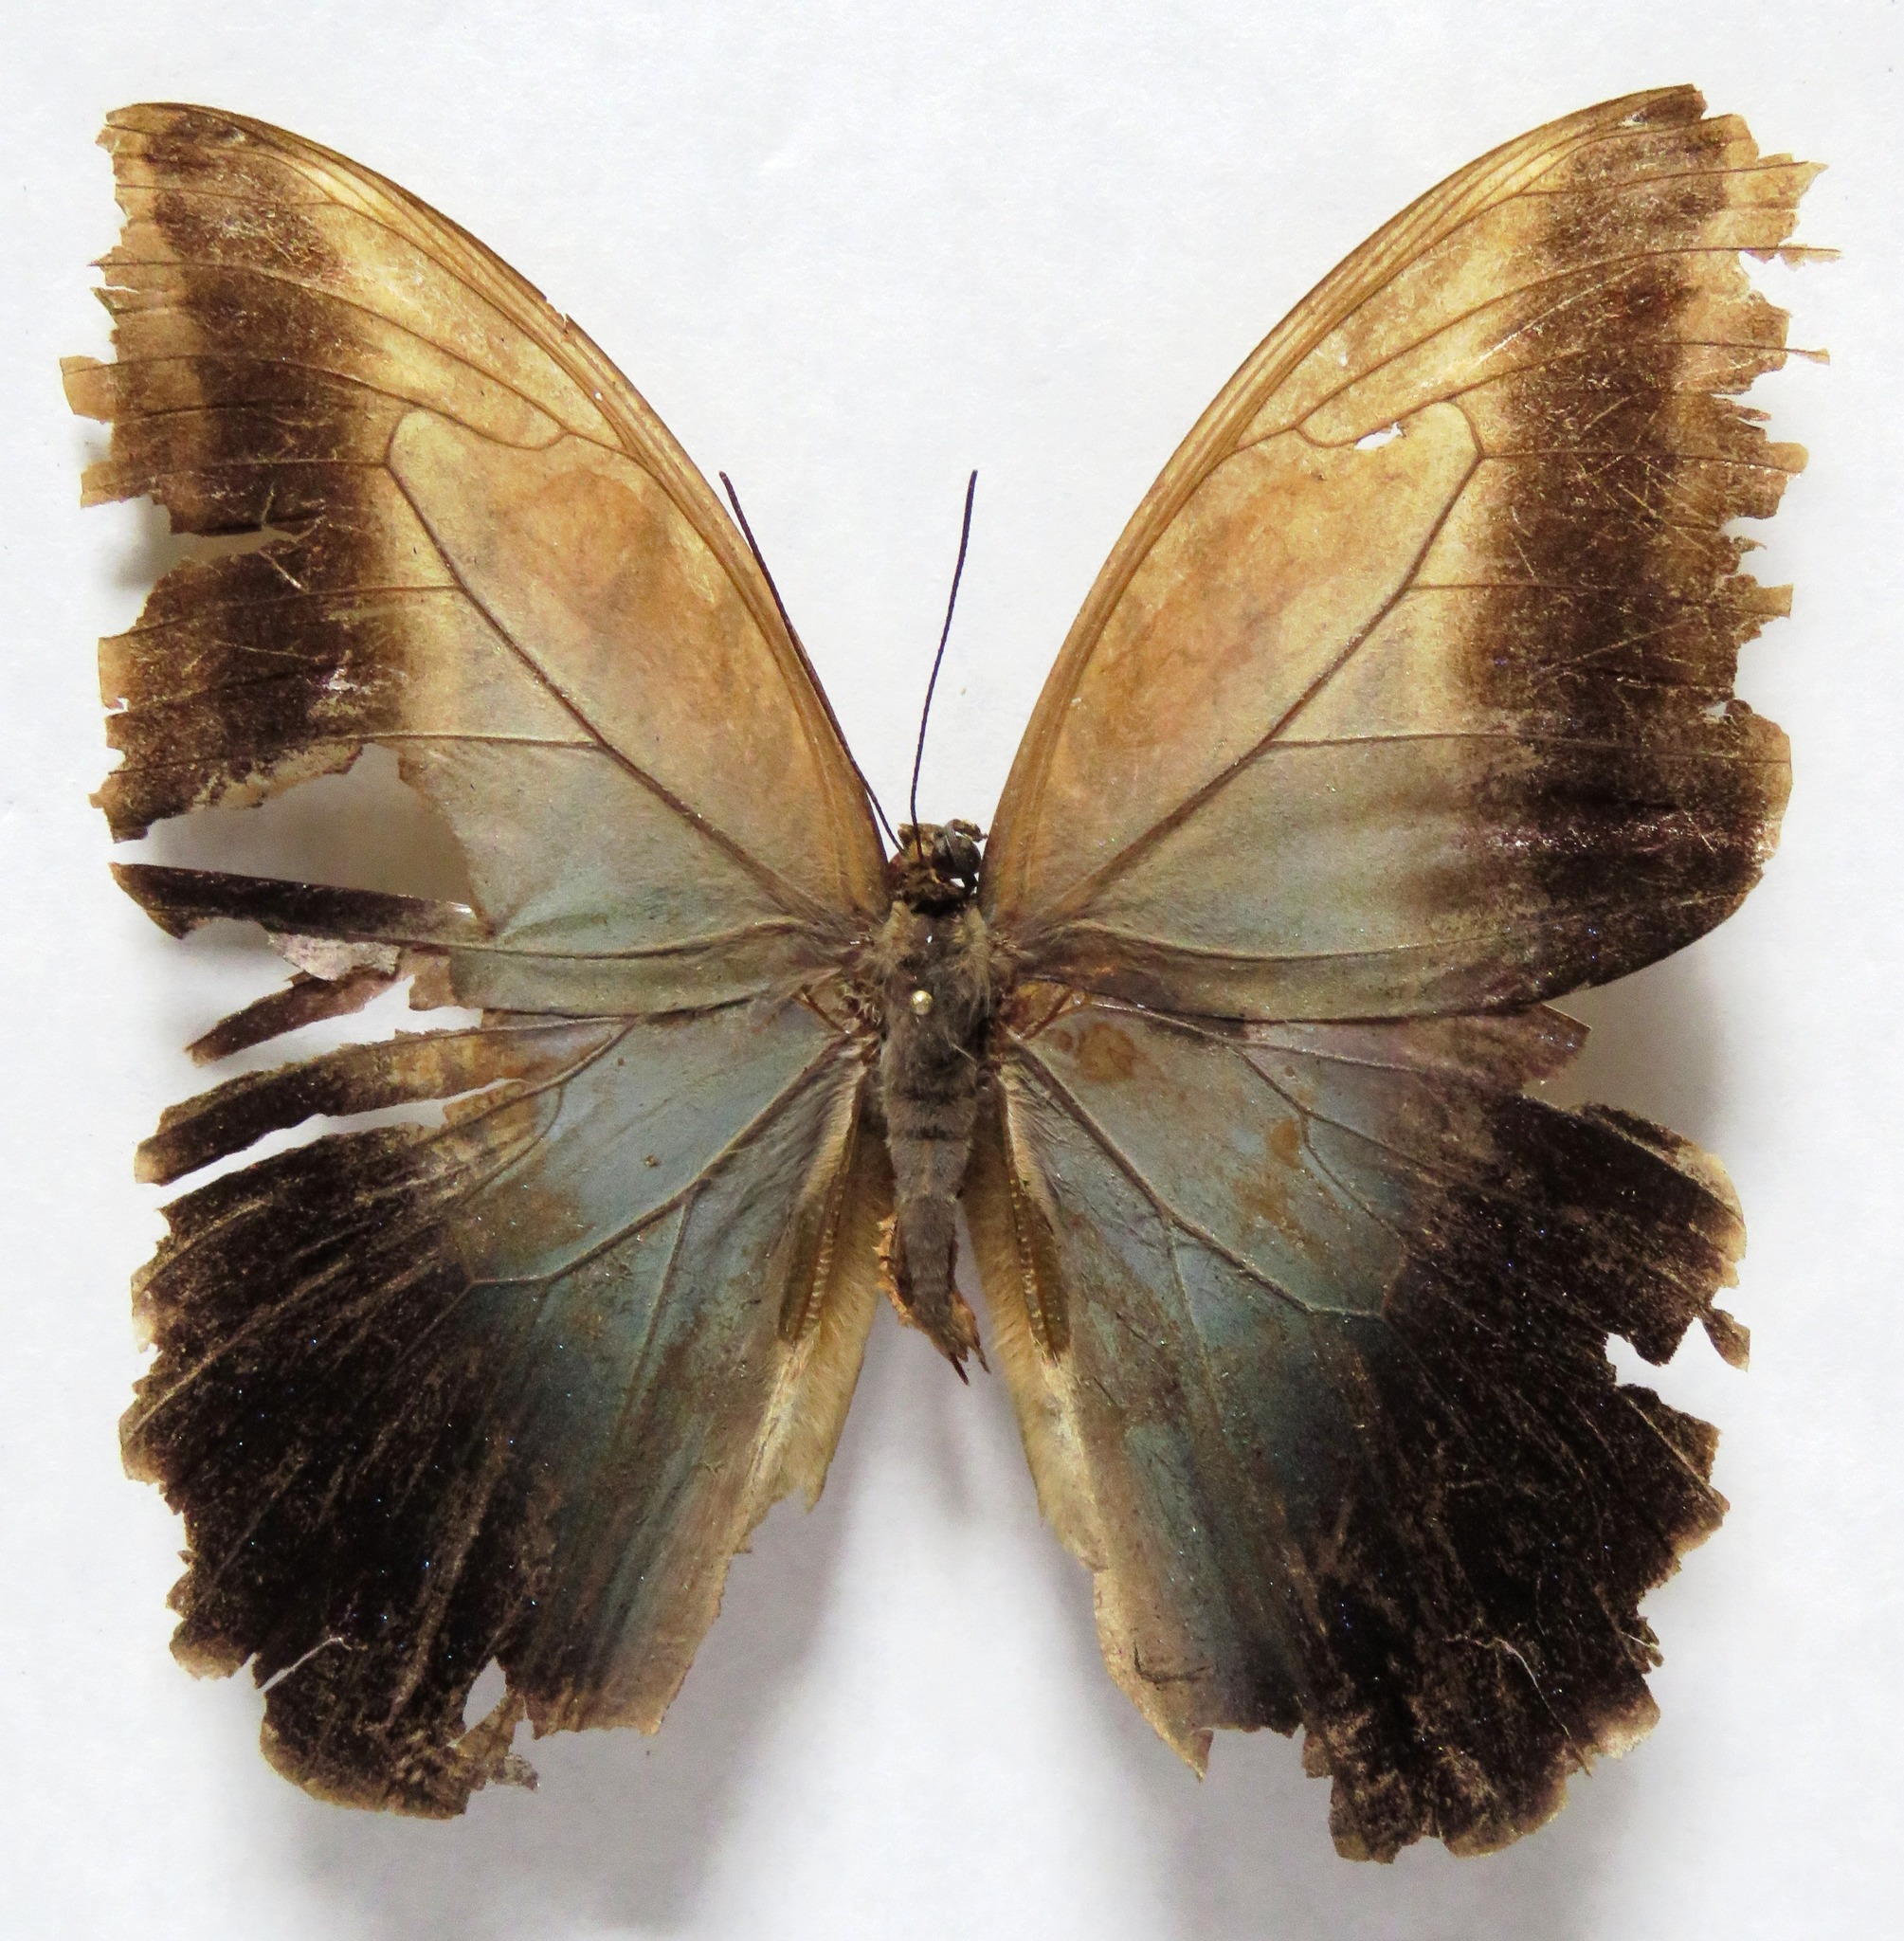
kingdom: Animalia
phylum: Arthropoda
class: Insecta
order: Lepidoptera
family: Nymphalidae
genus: Caligo
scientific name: Caligo oedipus
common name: Fruhstorfer's owl-butterfly
